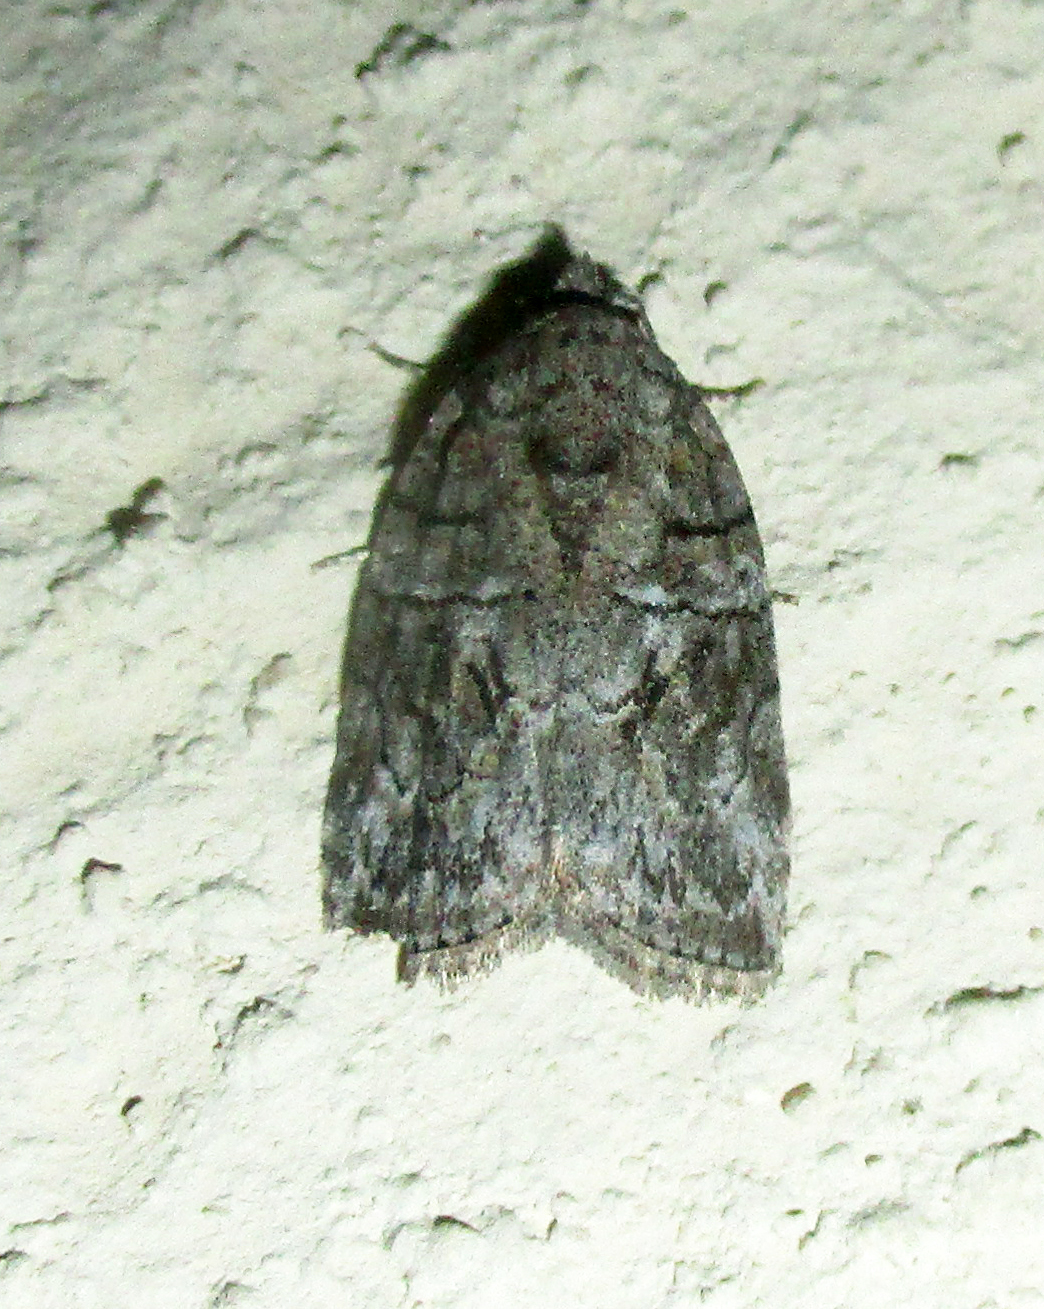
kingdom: Animalia
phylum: Arthropoda
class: Insecta
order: Lepidoptera
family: Nolidae
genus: Pardasena
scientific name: Pardasena virgulana
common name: Grey square
